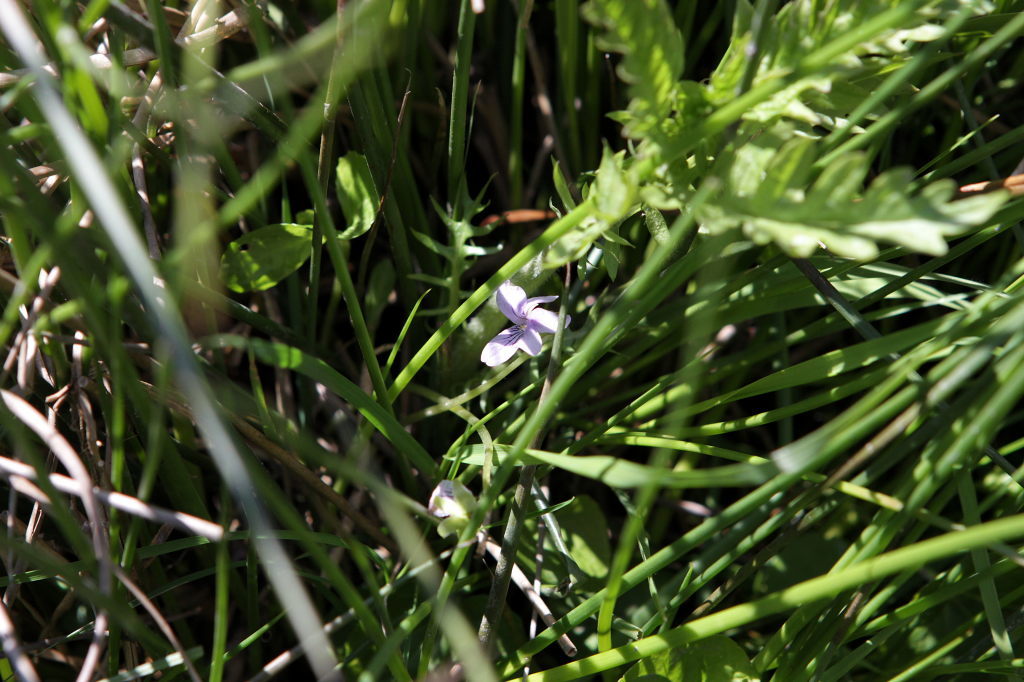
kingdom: Plantae
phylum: Tracheophyta
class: Magnoliopsida
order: Malpighiales
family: Violaceae
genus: Viola
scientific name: Viola palustris
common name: Marsh violet
